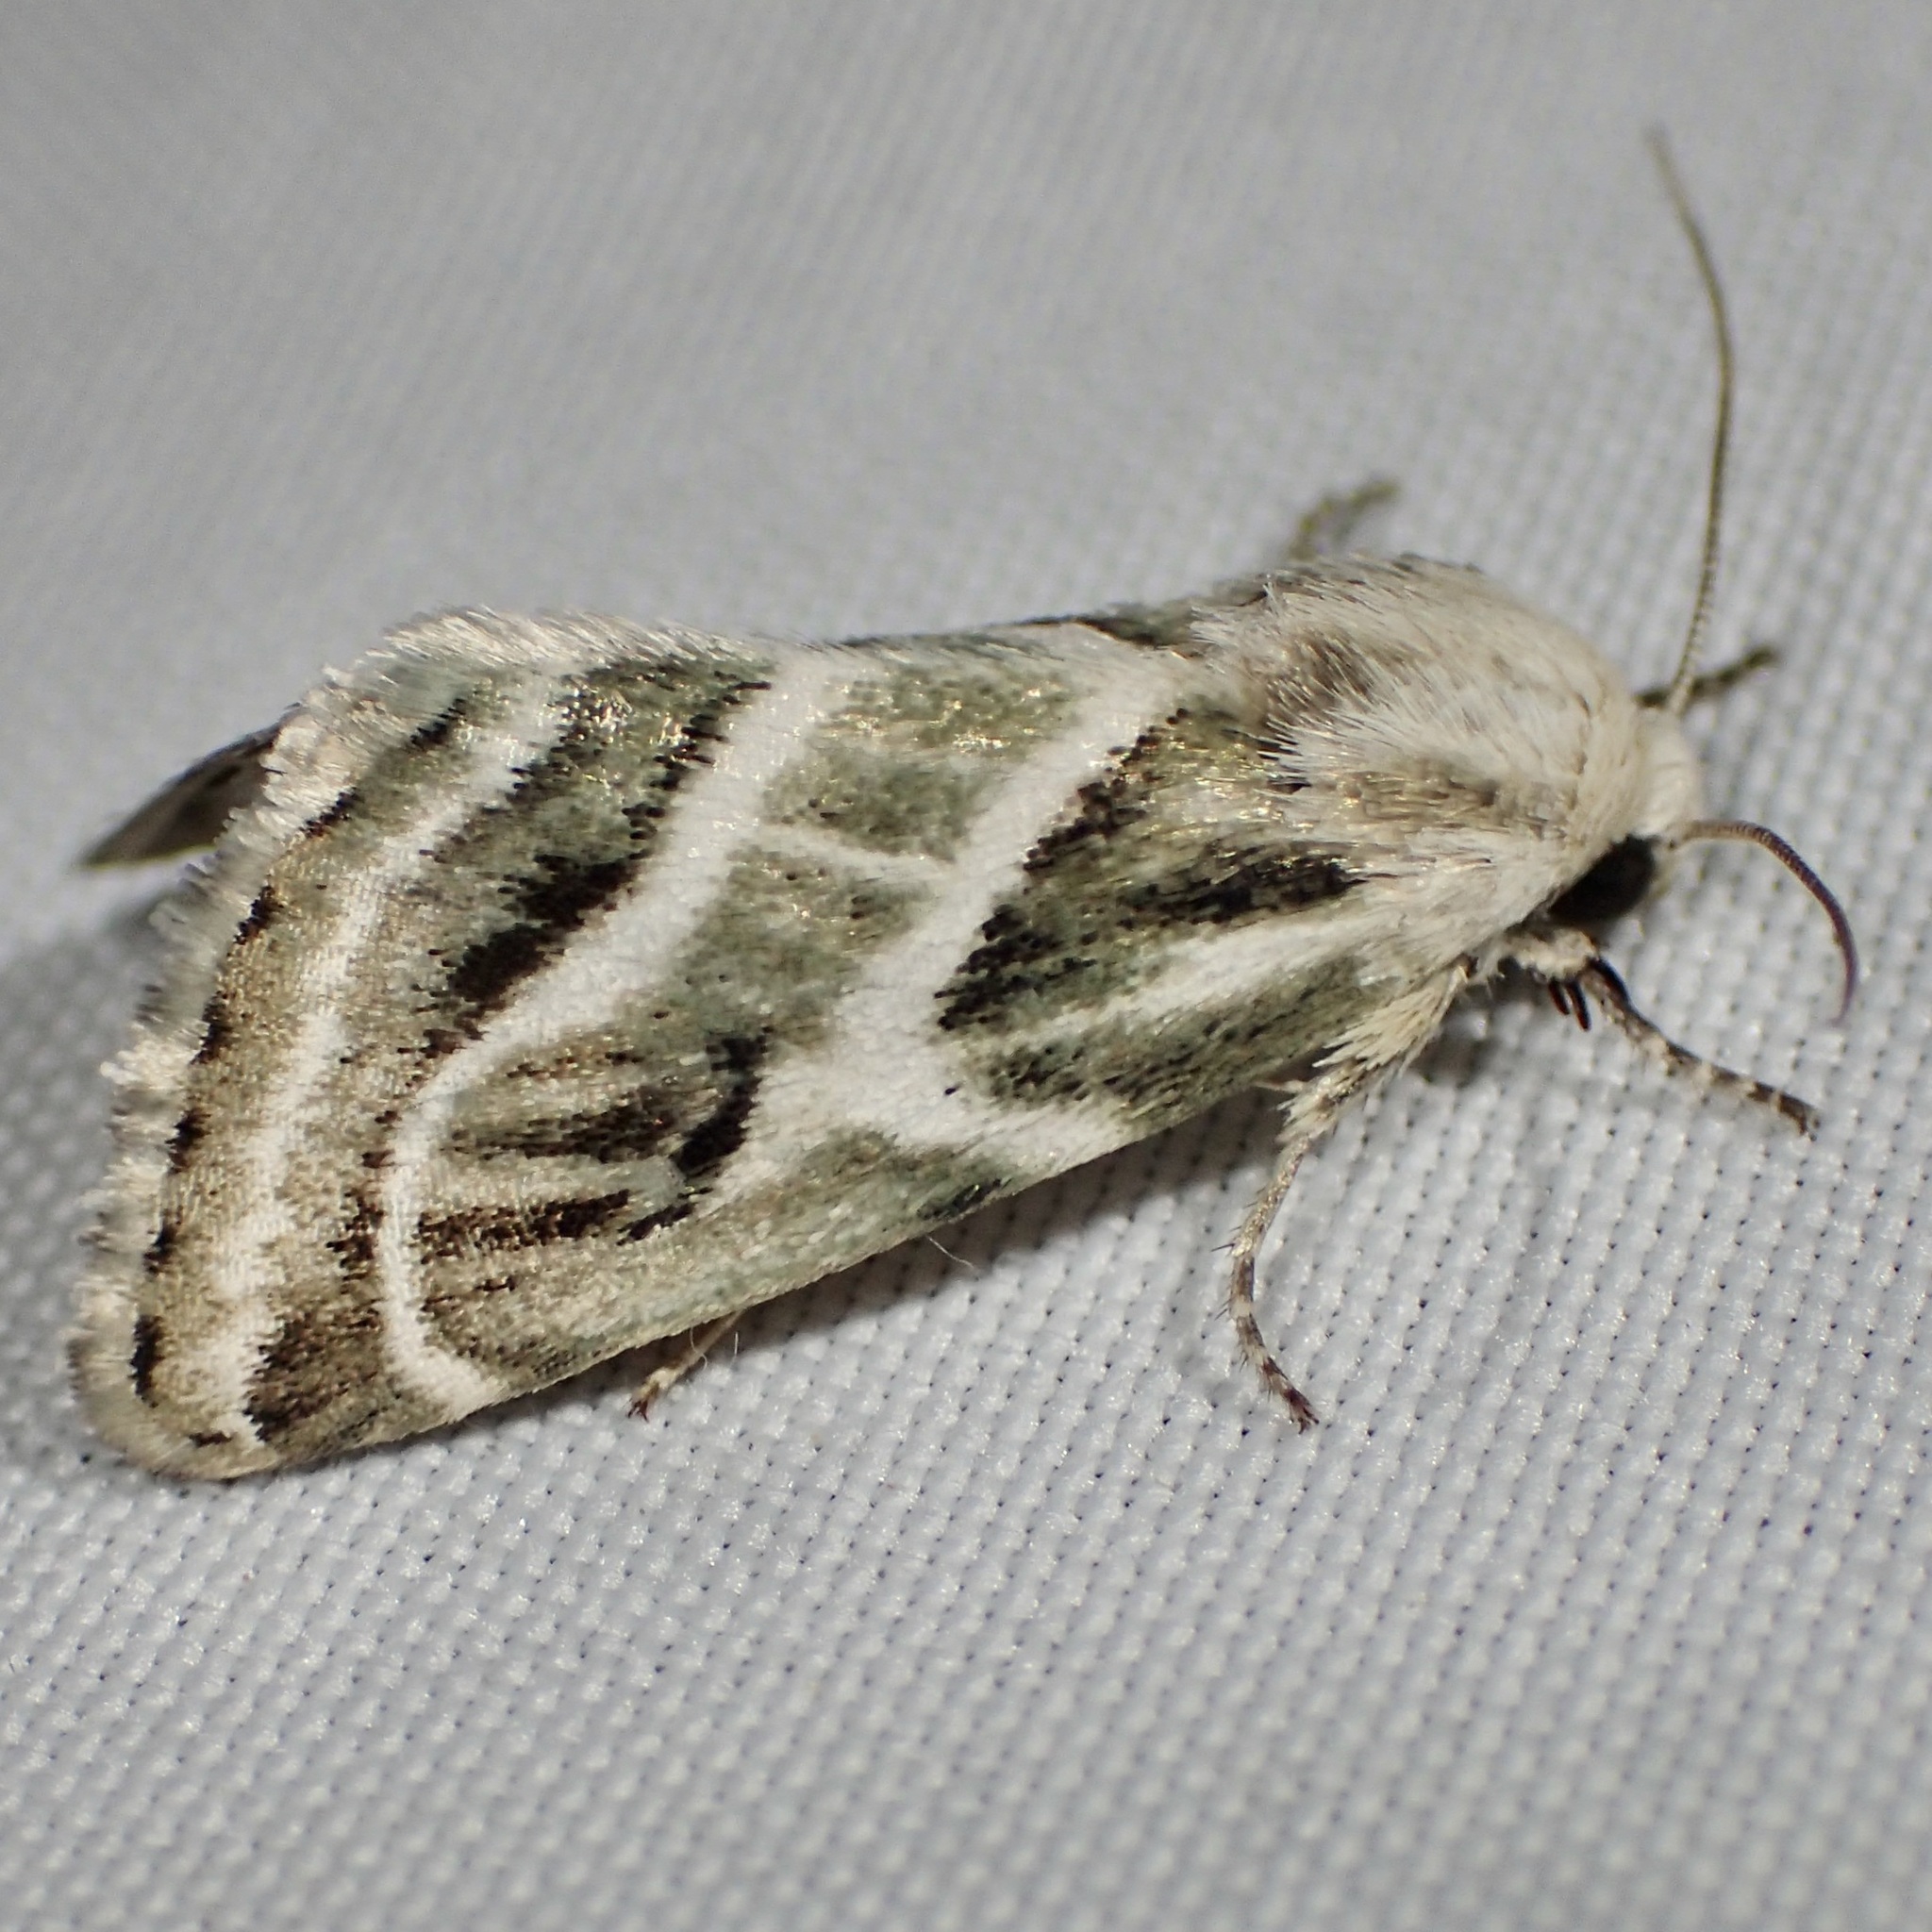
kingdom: Animalia
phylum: Arthropoda
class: Insecta
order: Lepidoptera
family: Noctuidae
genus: Schinia
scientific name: Schinia accessa
